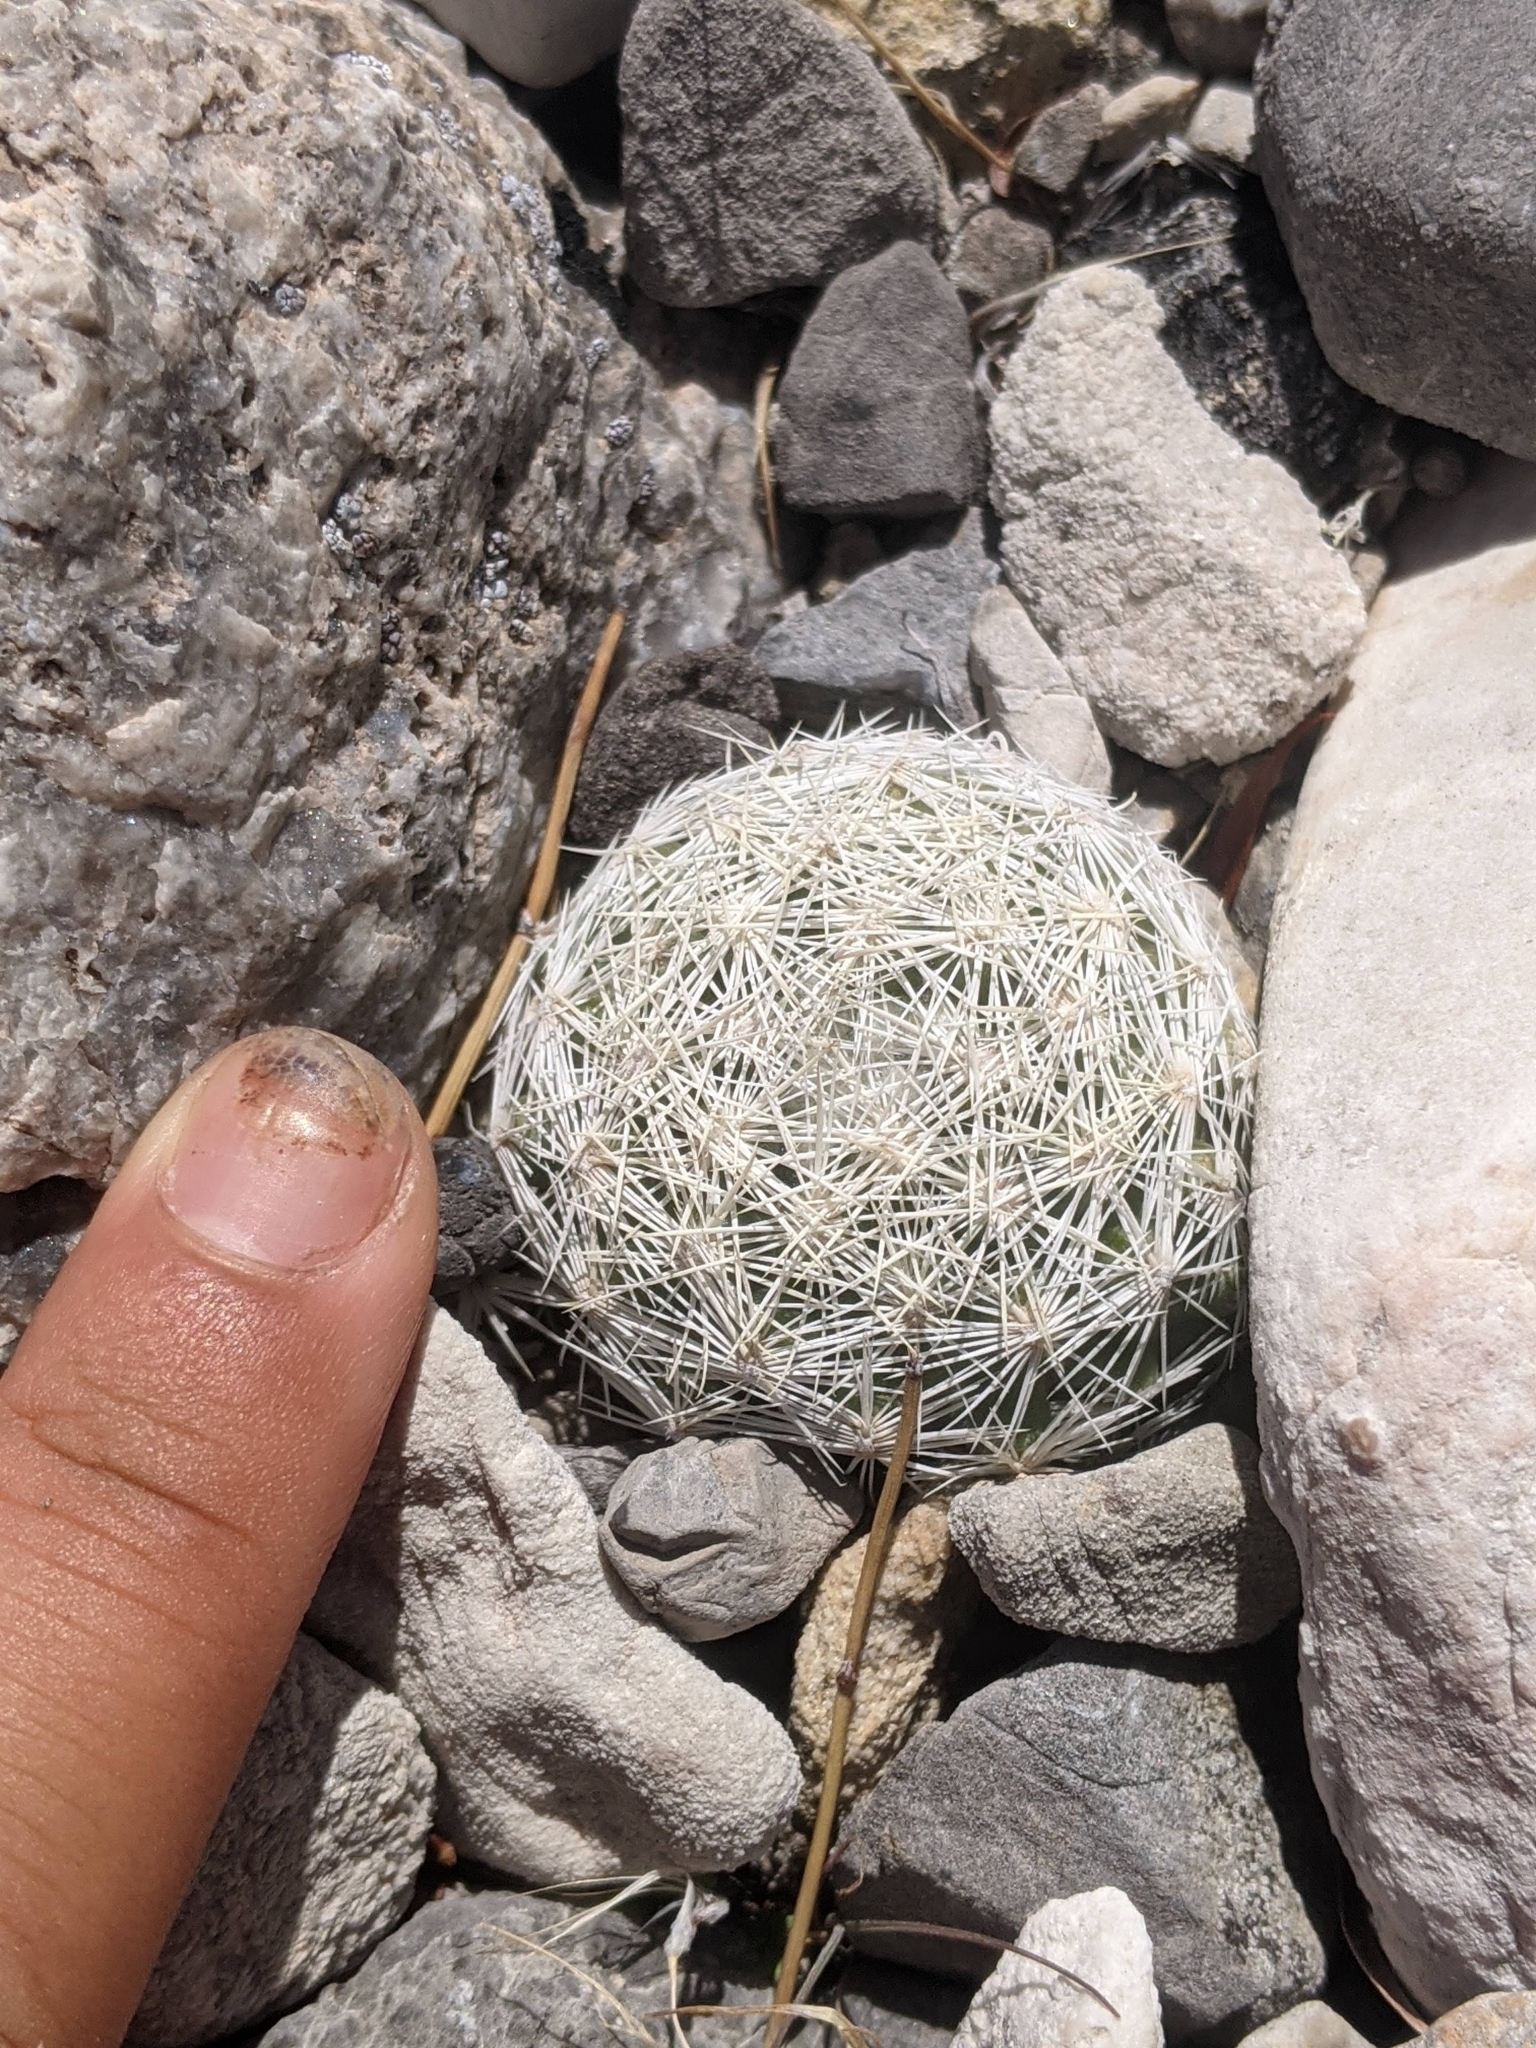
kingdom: Plantae
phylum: Tracheophyta
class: Magnoliopsida
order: Caryophyllales
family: Cactaceae
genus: Pelecyphora
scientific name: Pelecyphora dasyacantha
